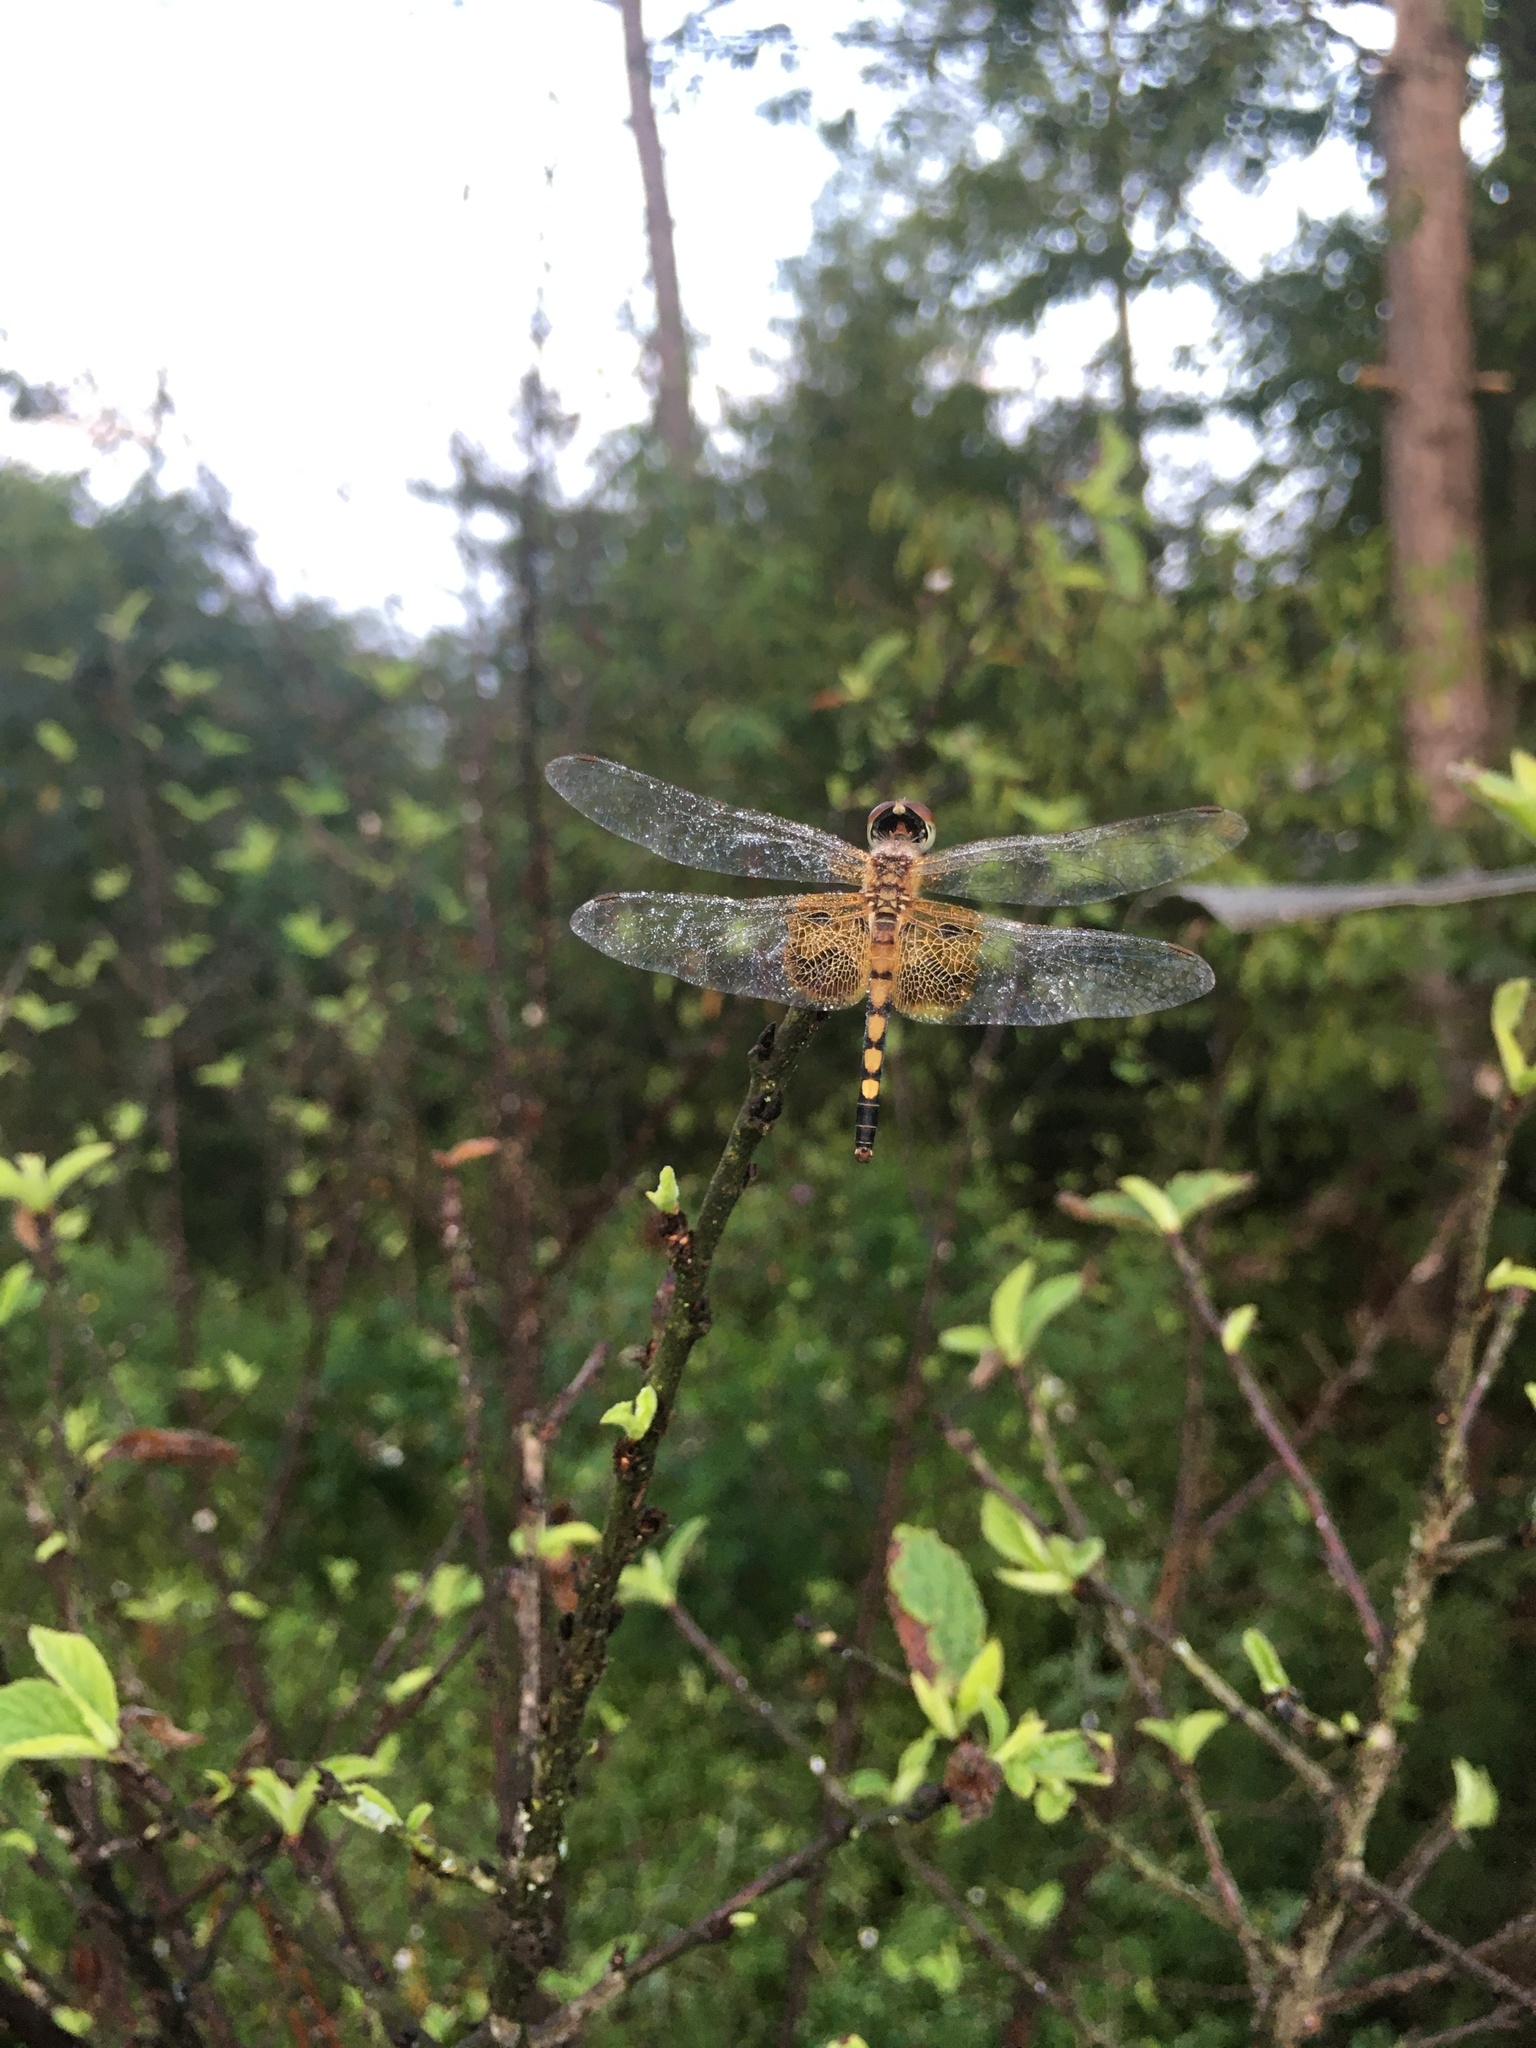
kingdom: Animalia
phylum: Arthropoda
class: Insecta
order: Odonata
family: Libellulidae
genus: Celithemis
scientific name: Celithemis amanda
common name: Amanda's pennant
